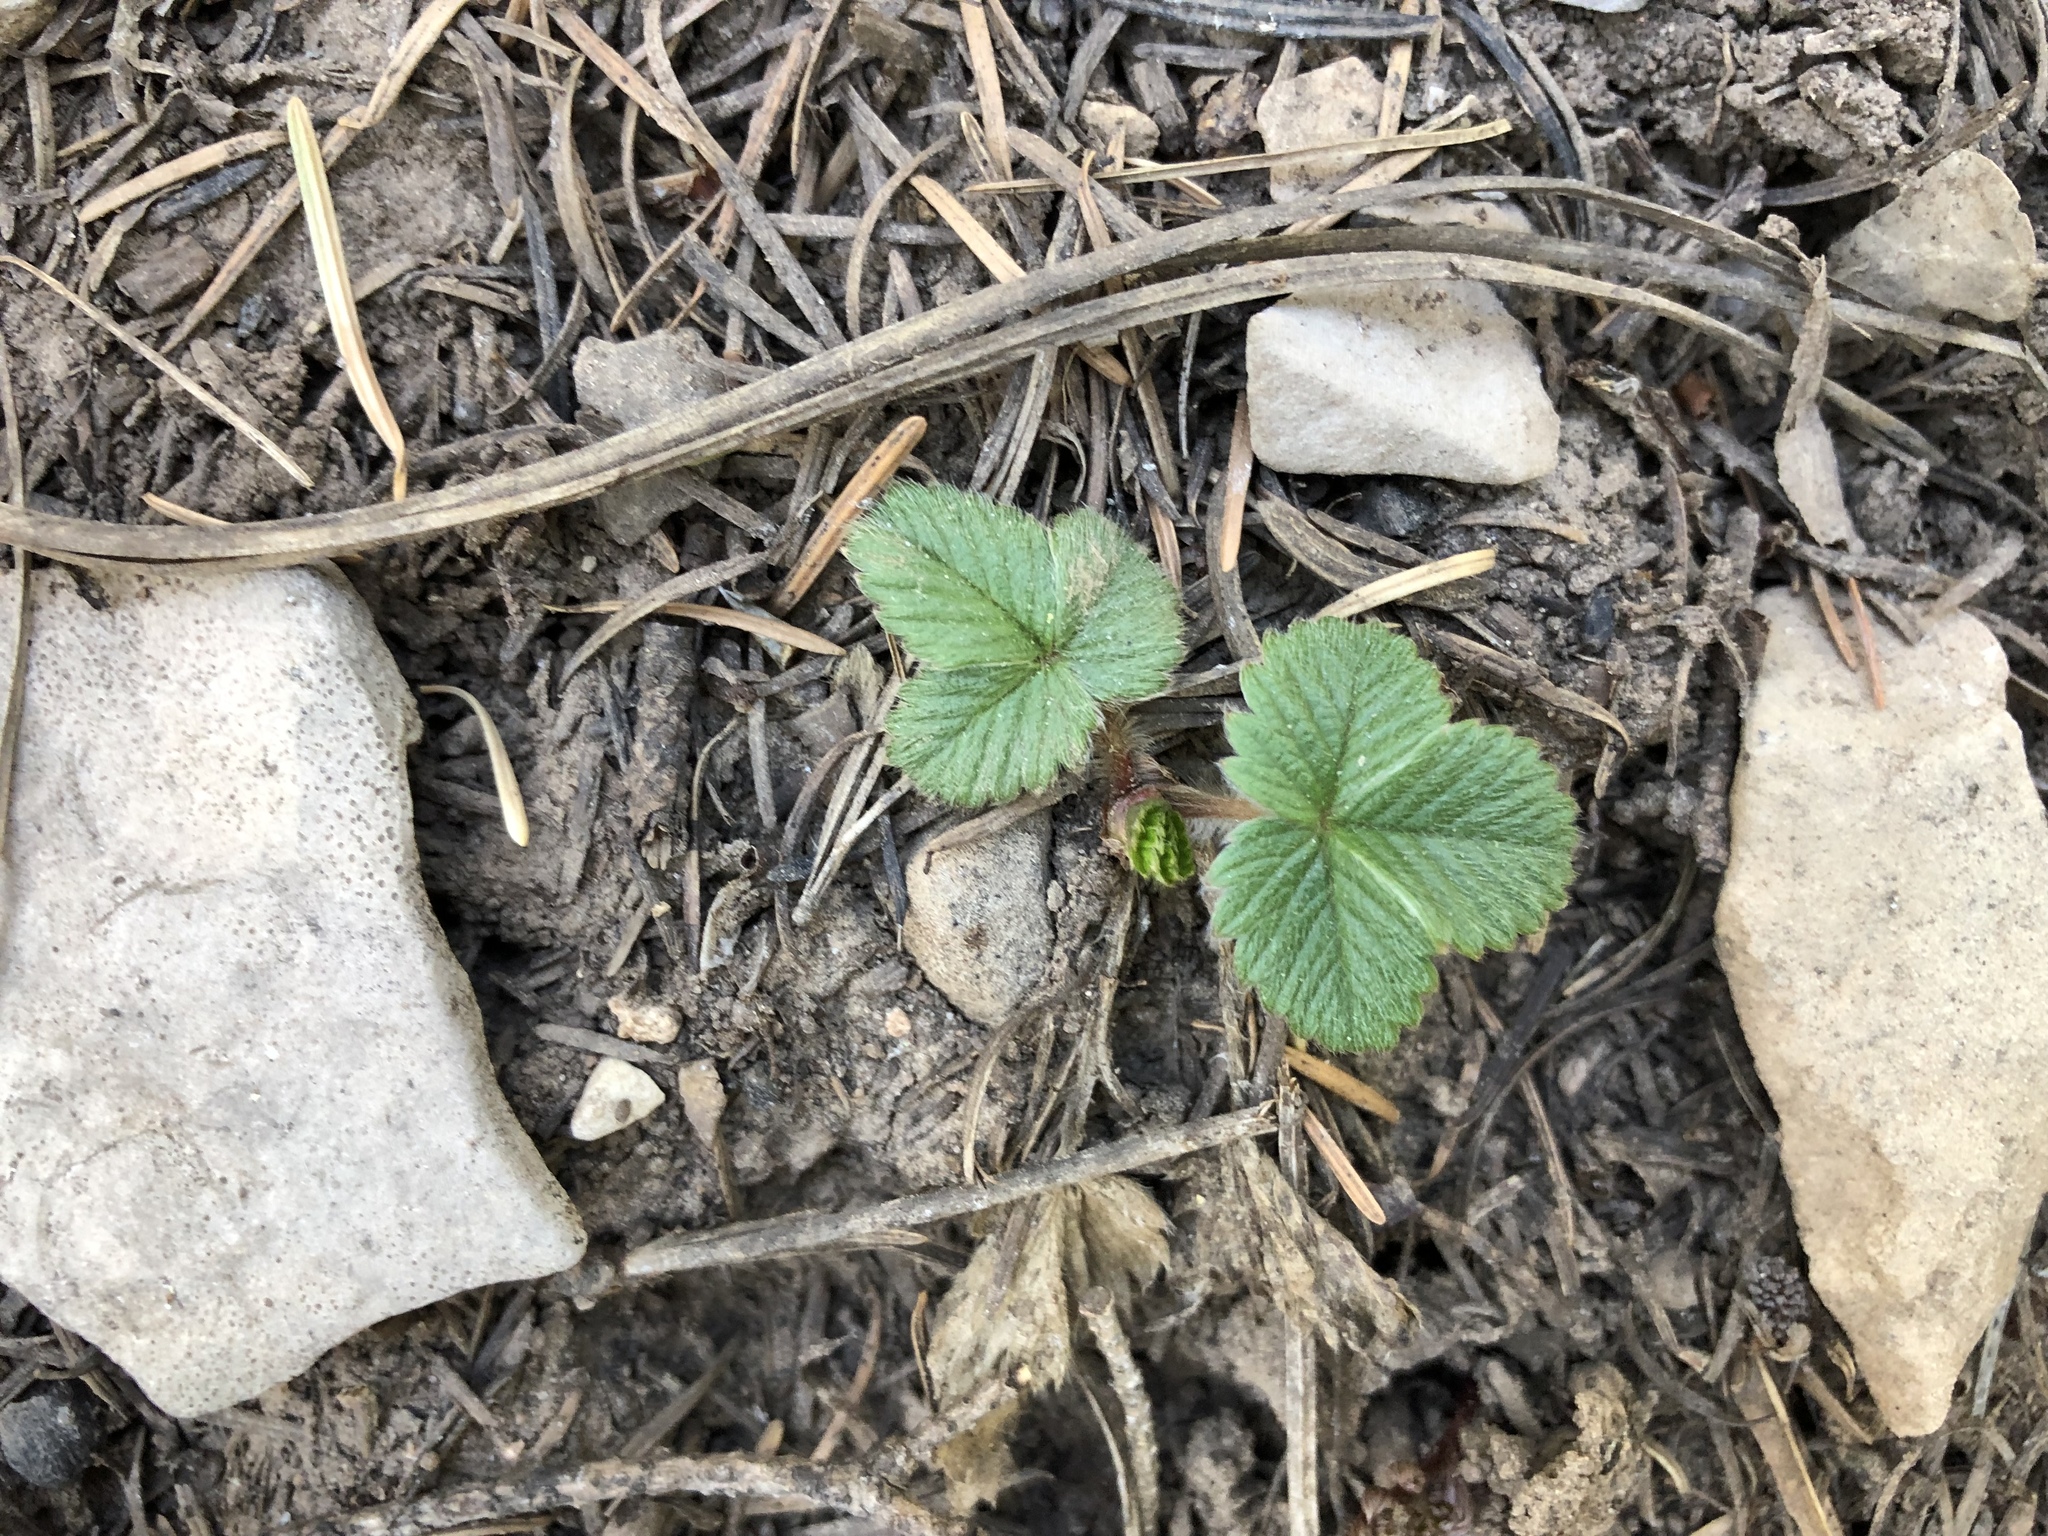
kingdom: Plantae
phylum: Tracheophyta
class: Magnoliopsida
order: Rosales
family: Rosaceae
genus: Fragaria
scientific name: Fragaria vesca
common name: Wild strawberry
